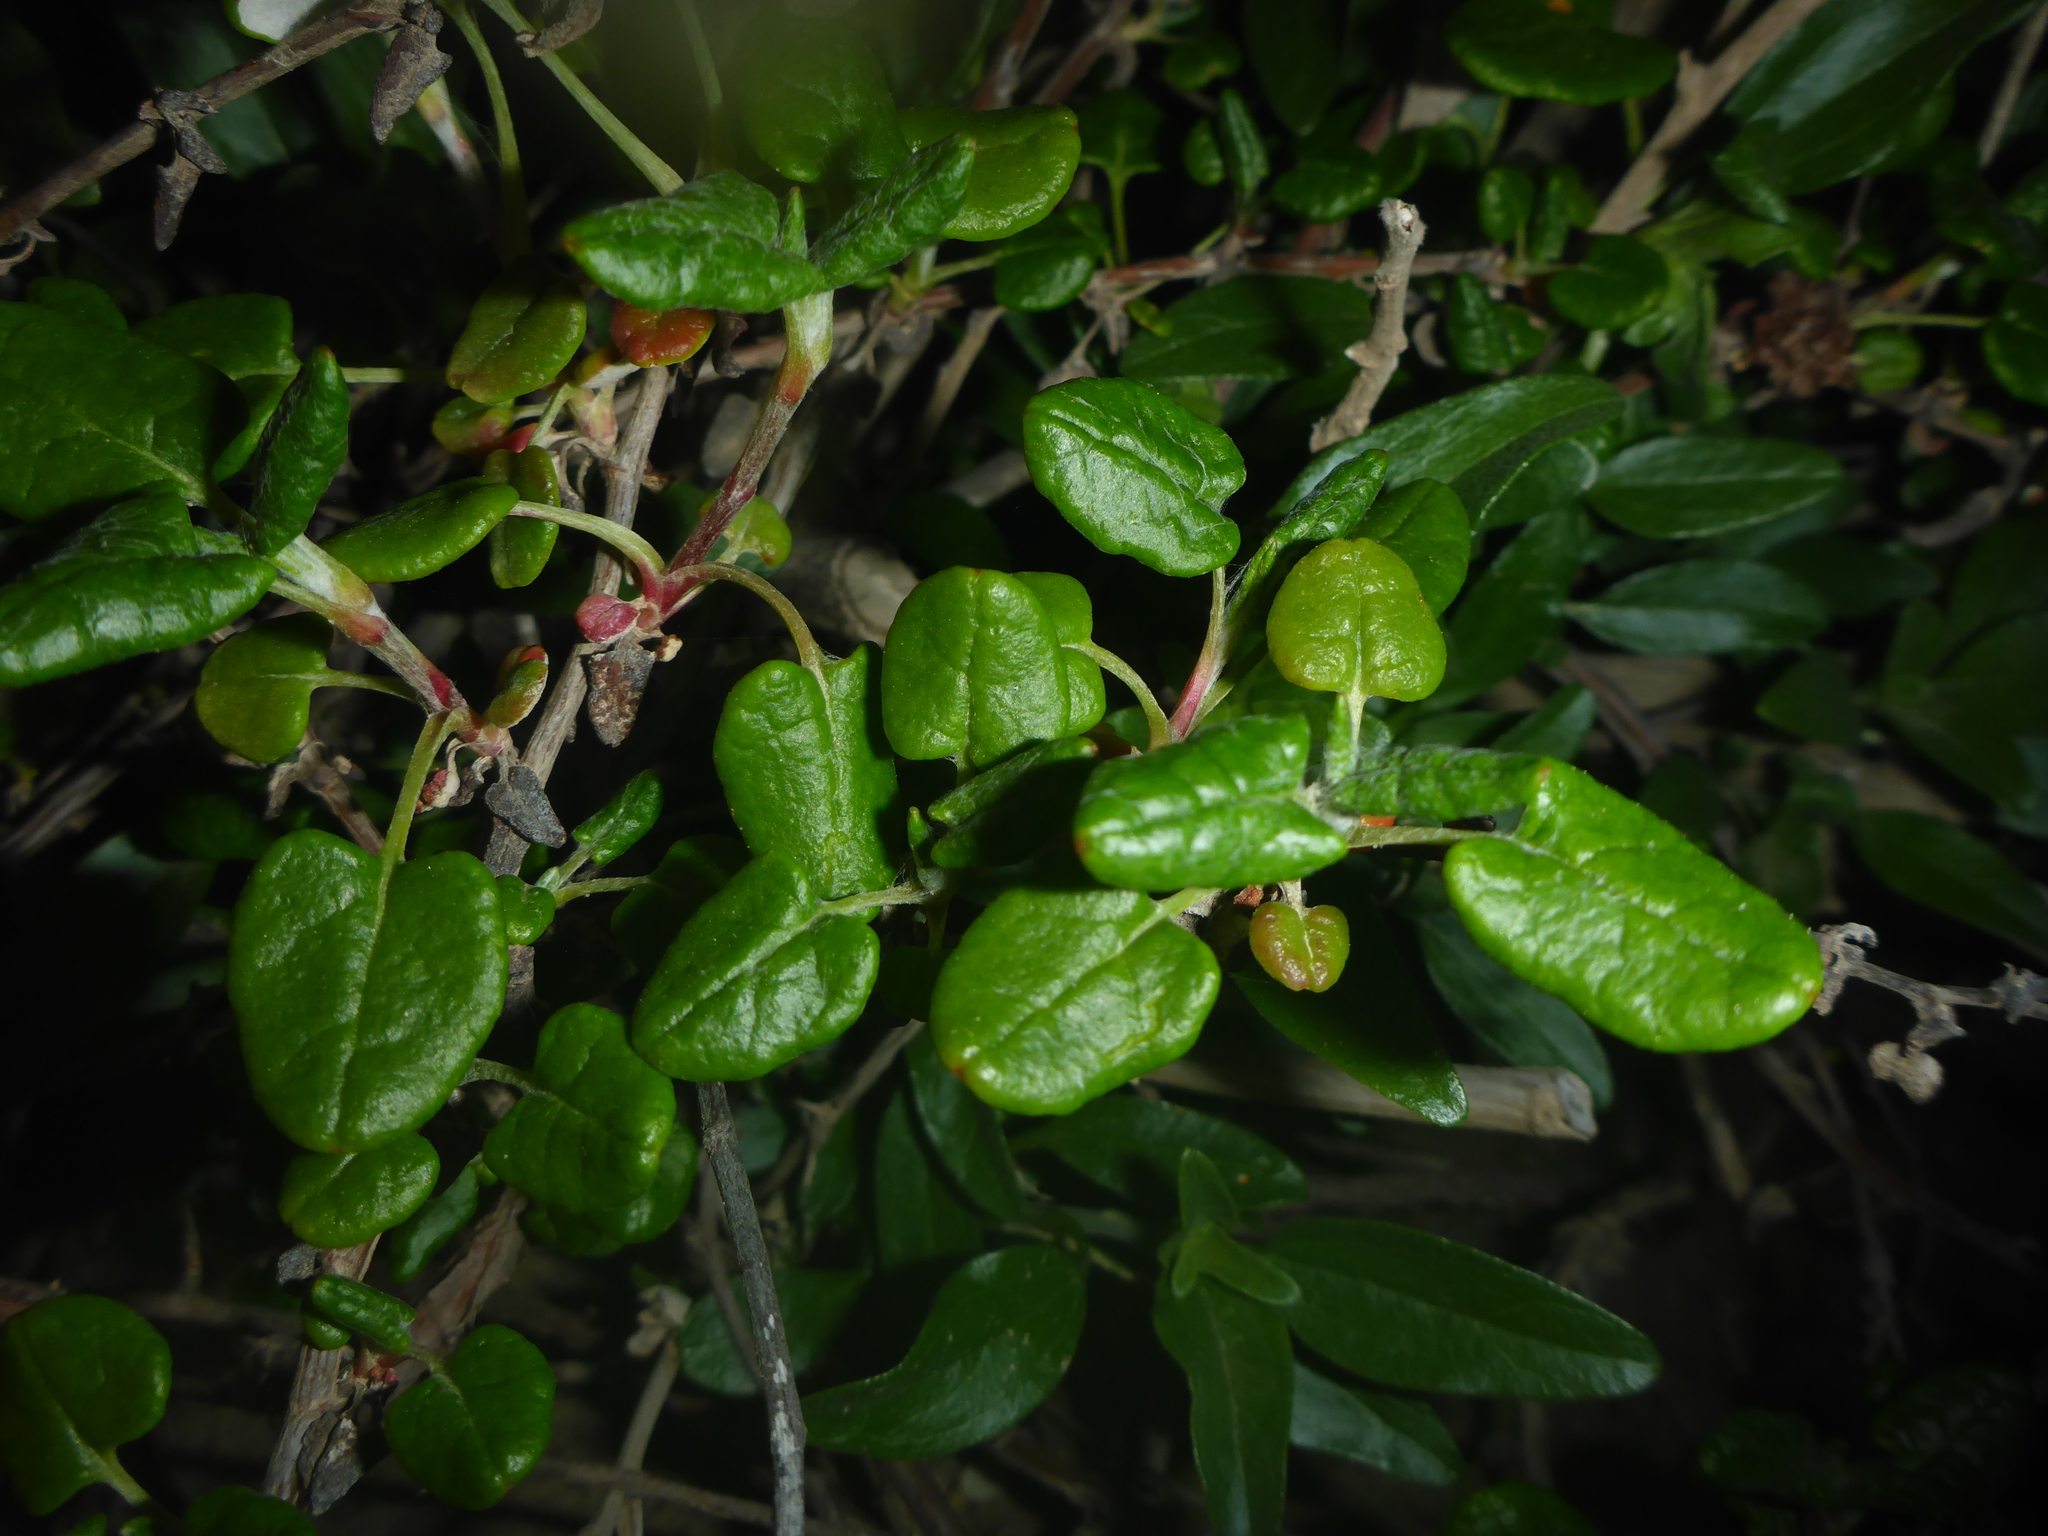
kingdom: Plantae
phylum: Tracheophyta
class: Magnoliopsida
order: Caryophyllales
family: Polygonaceae
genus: Eriogonum
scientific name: Eriogonum parvifolium
